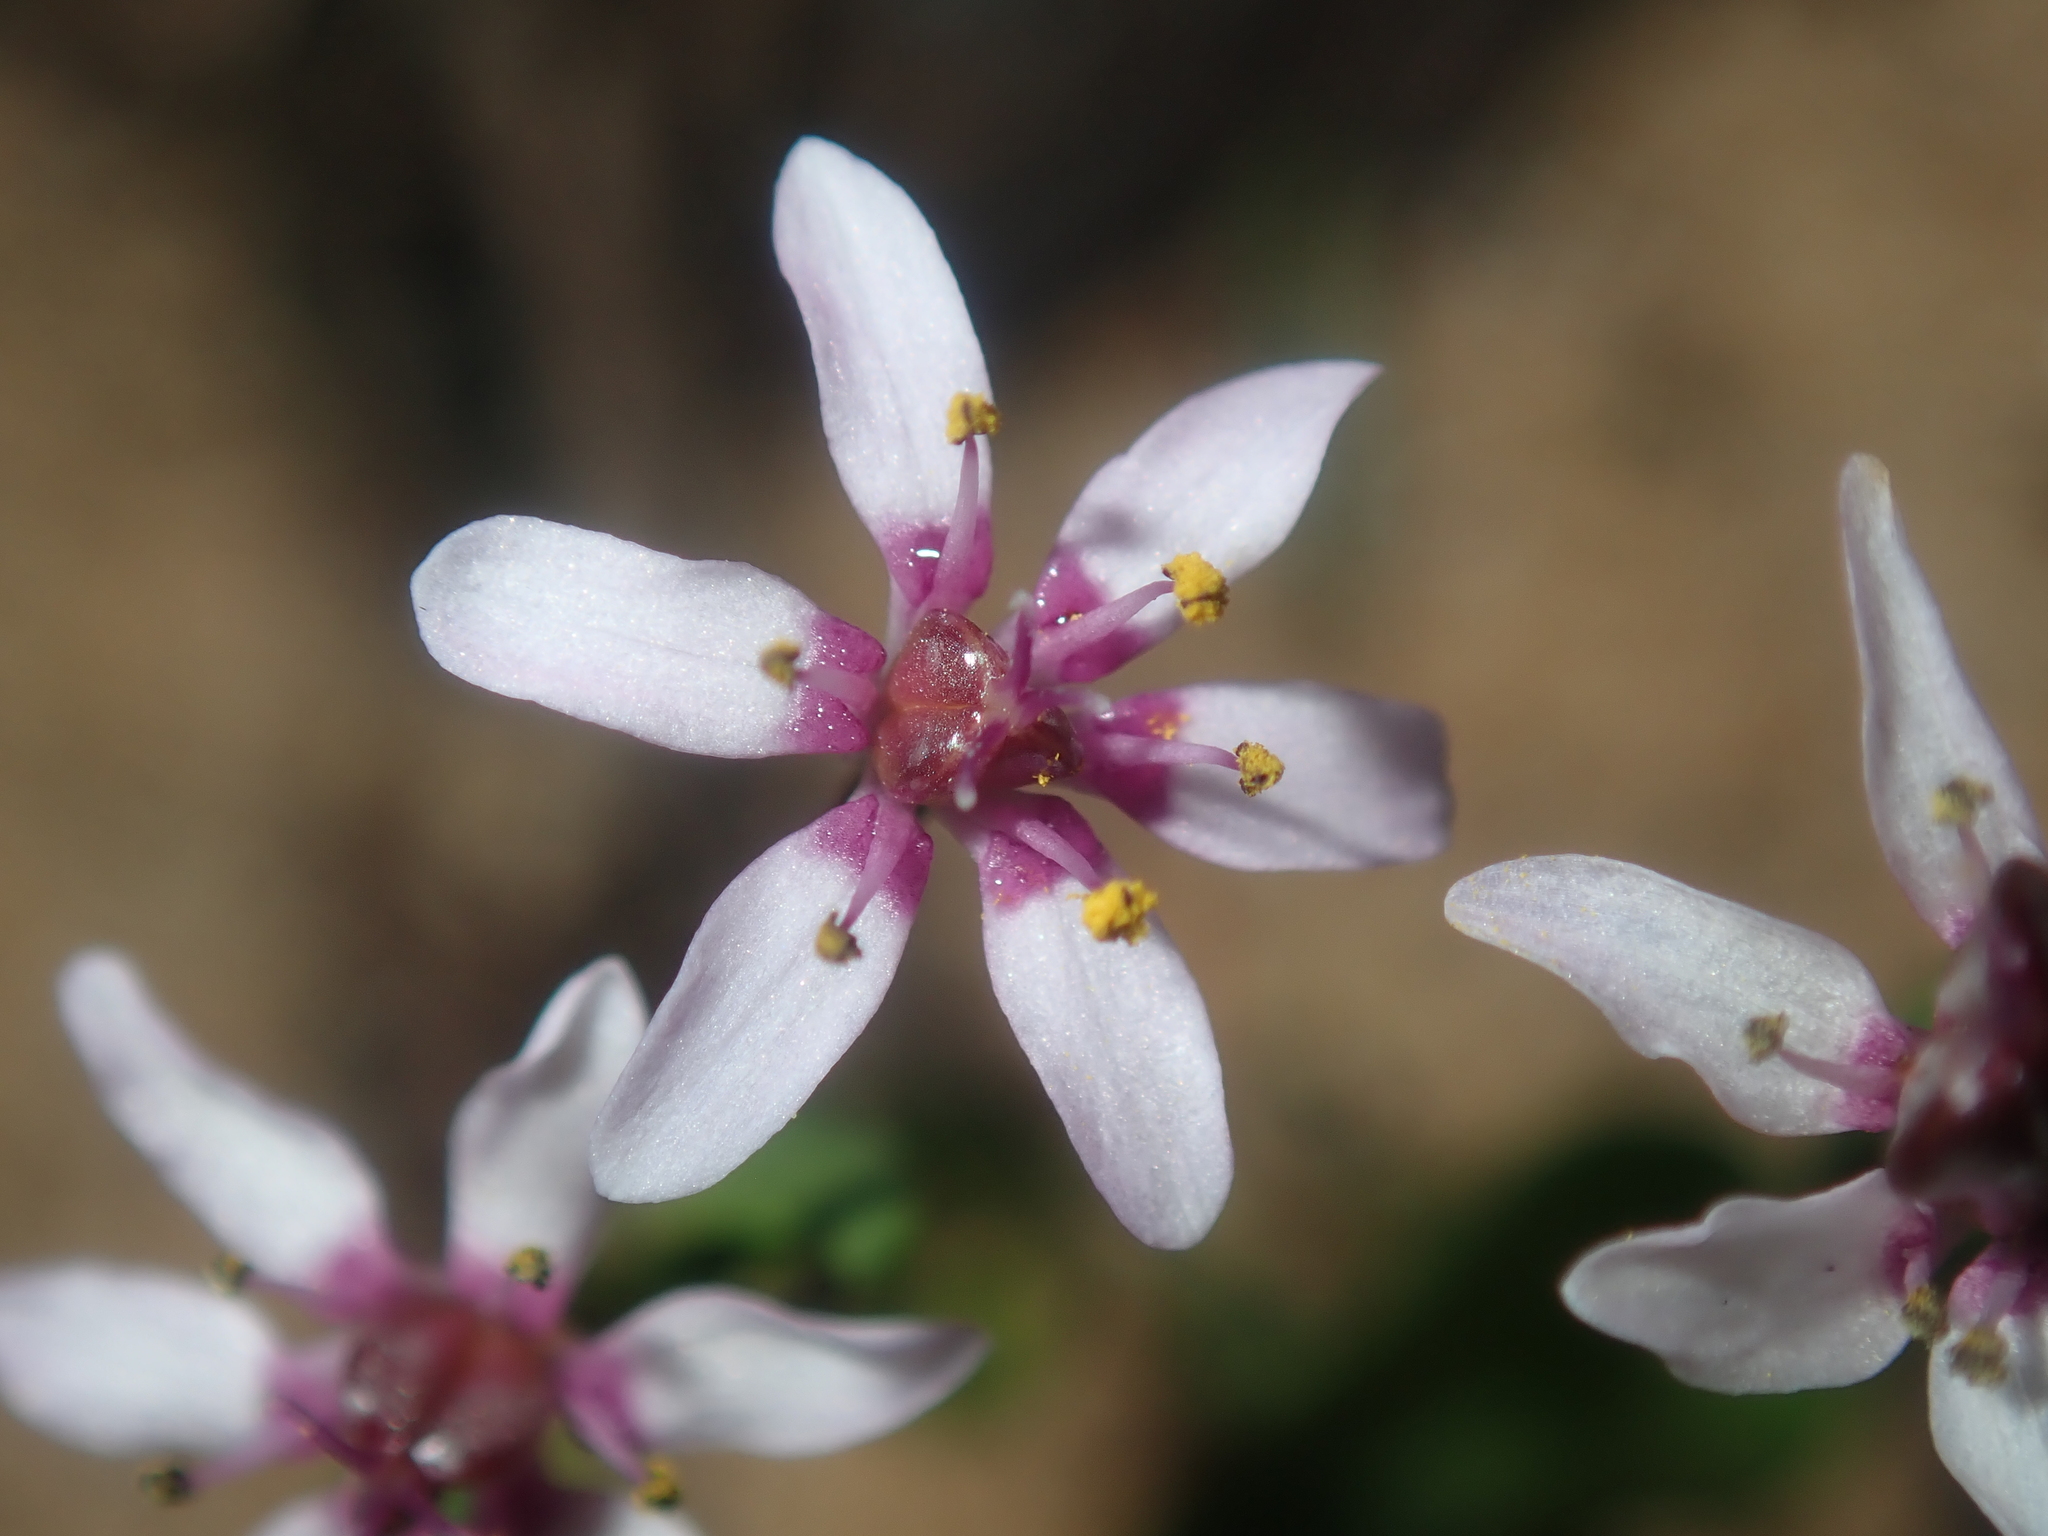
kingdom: Plantae
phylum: Tracheophyta
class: Liliopsida
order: Liliales
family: Colchicaceae
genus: Wurmbea
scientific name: Wurmbea monantha
